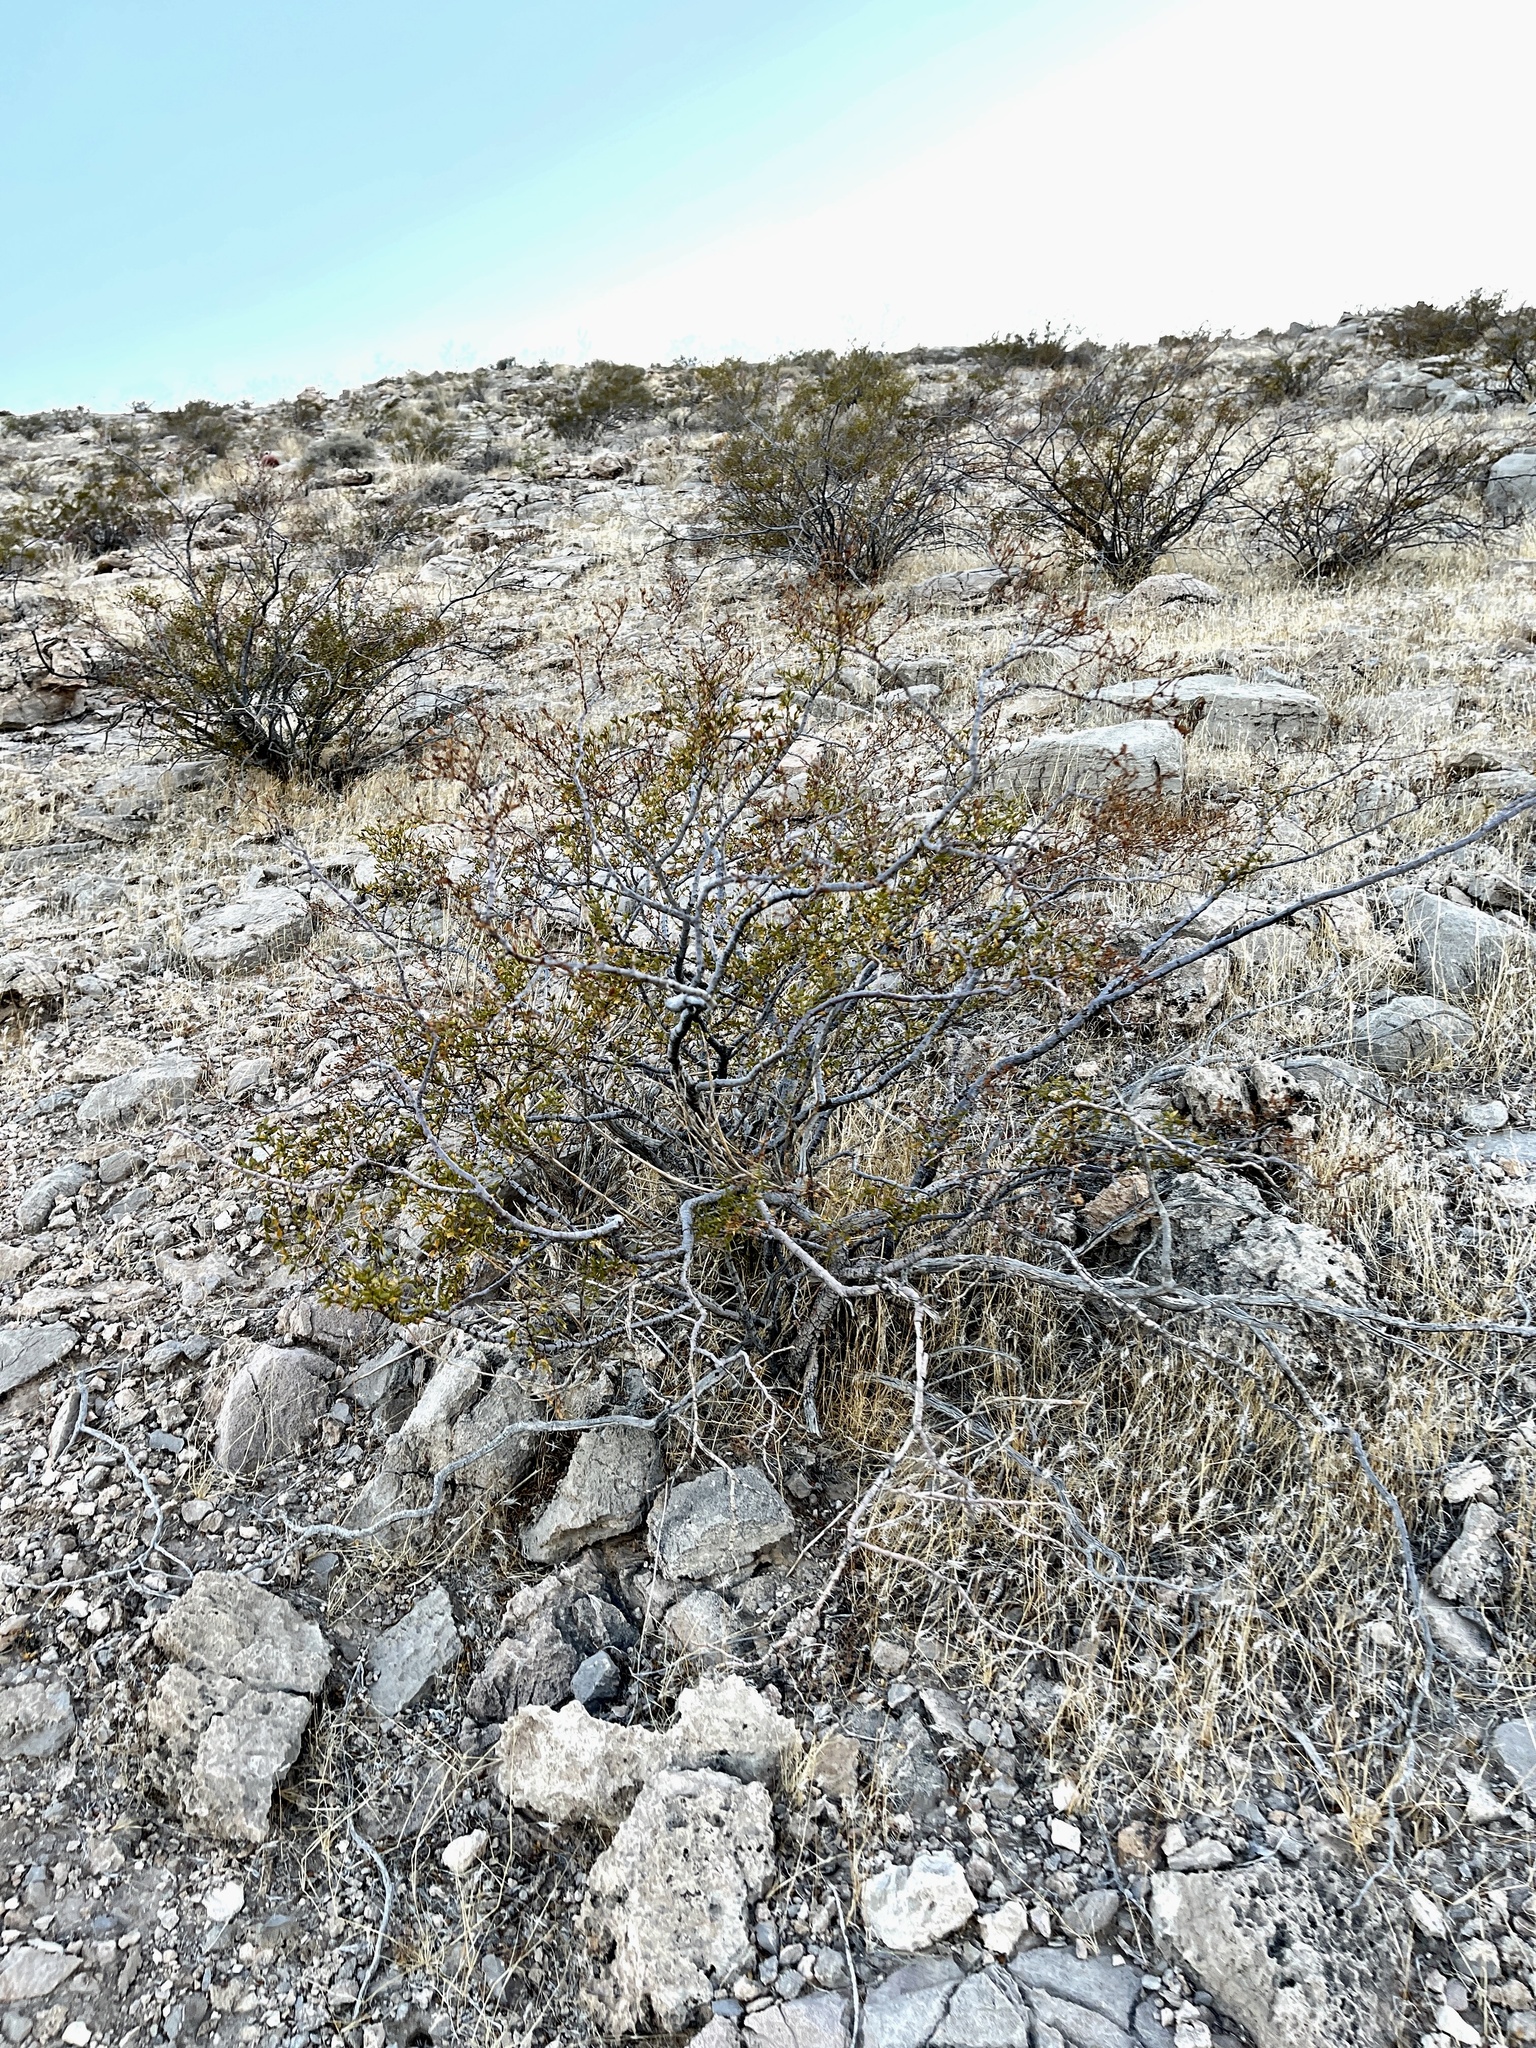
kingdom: Plantae
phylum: Tracheophyta
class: Magnoliopsida
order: Zygophyllales
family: Zygophyllaceae
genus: Larrea
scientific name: Larrea tridentata
